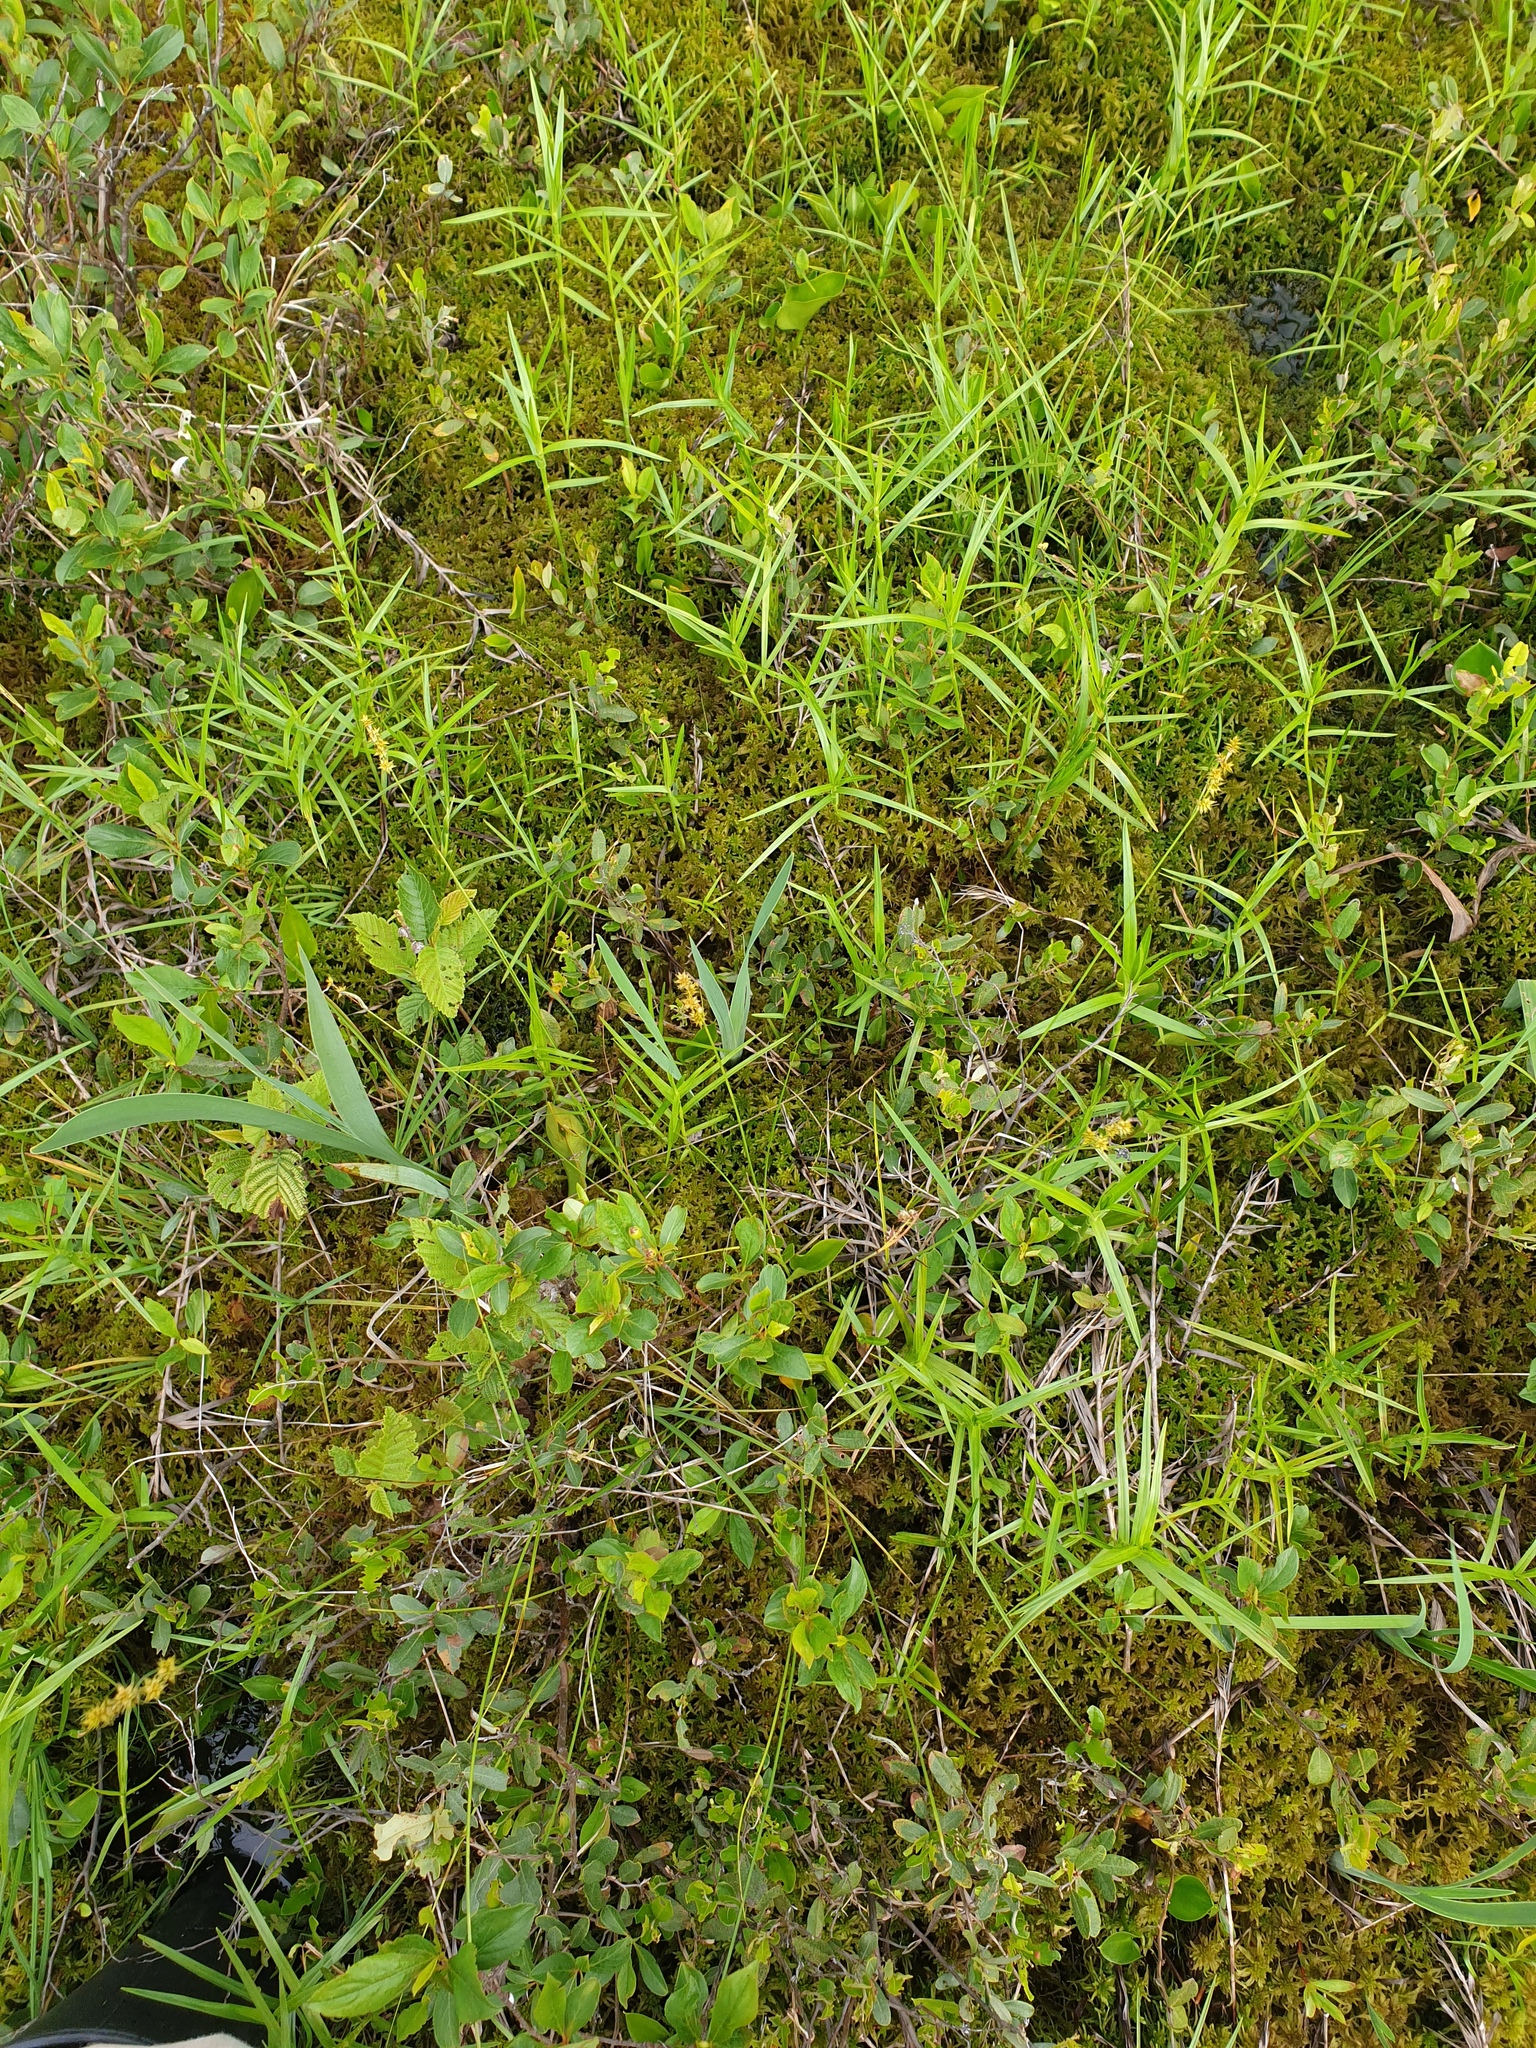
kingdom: Plantae
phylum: Tracheophyta
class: Liliopsida
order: Poales
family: Cyperaceae
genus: Dulichium
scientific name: Dulichium arundinaceum
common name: Three-way sedge
